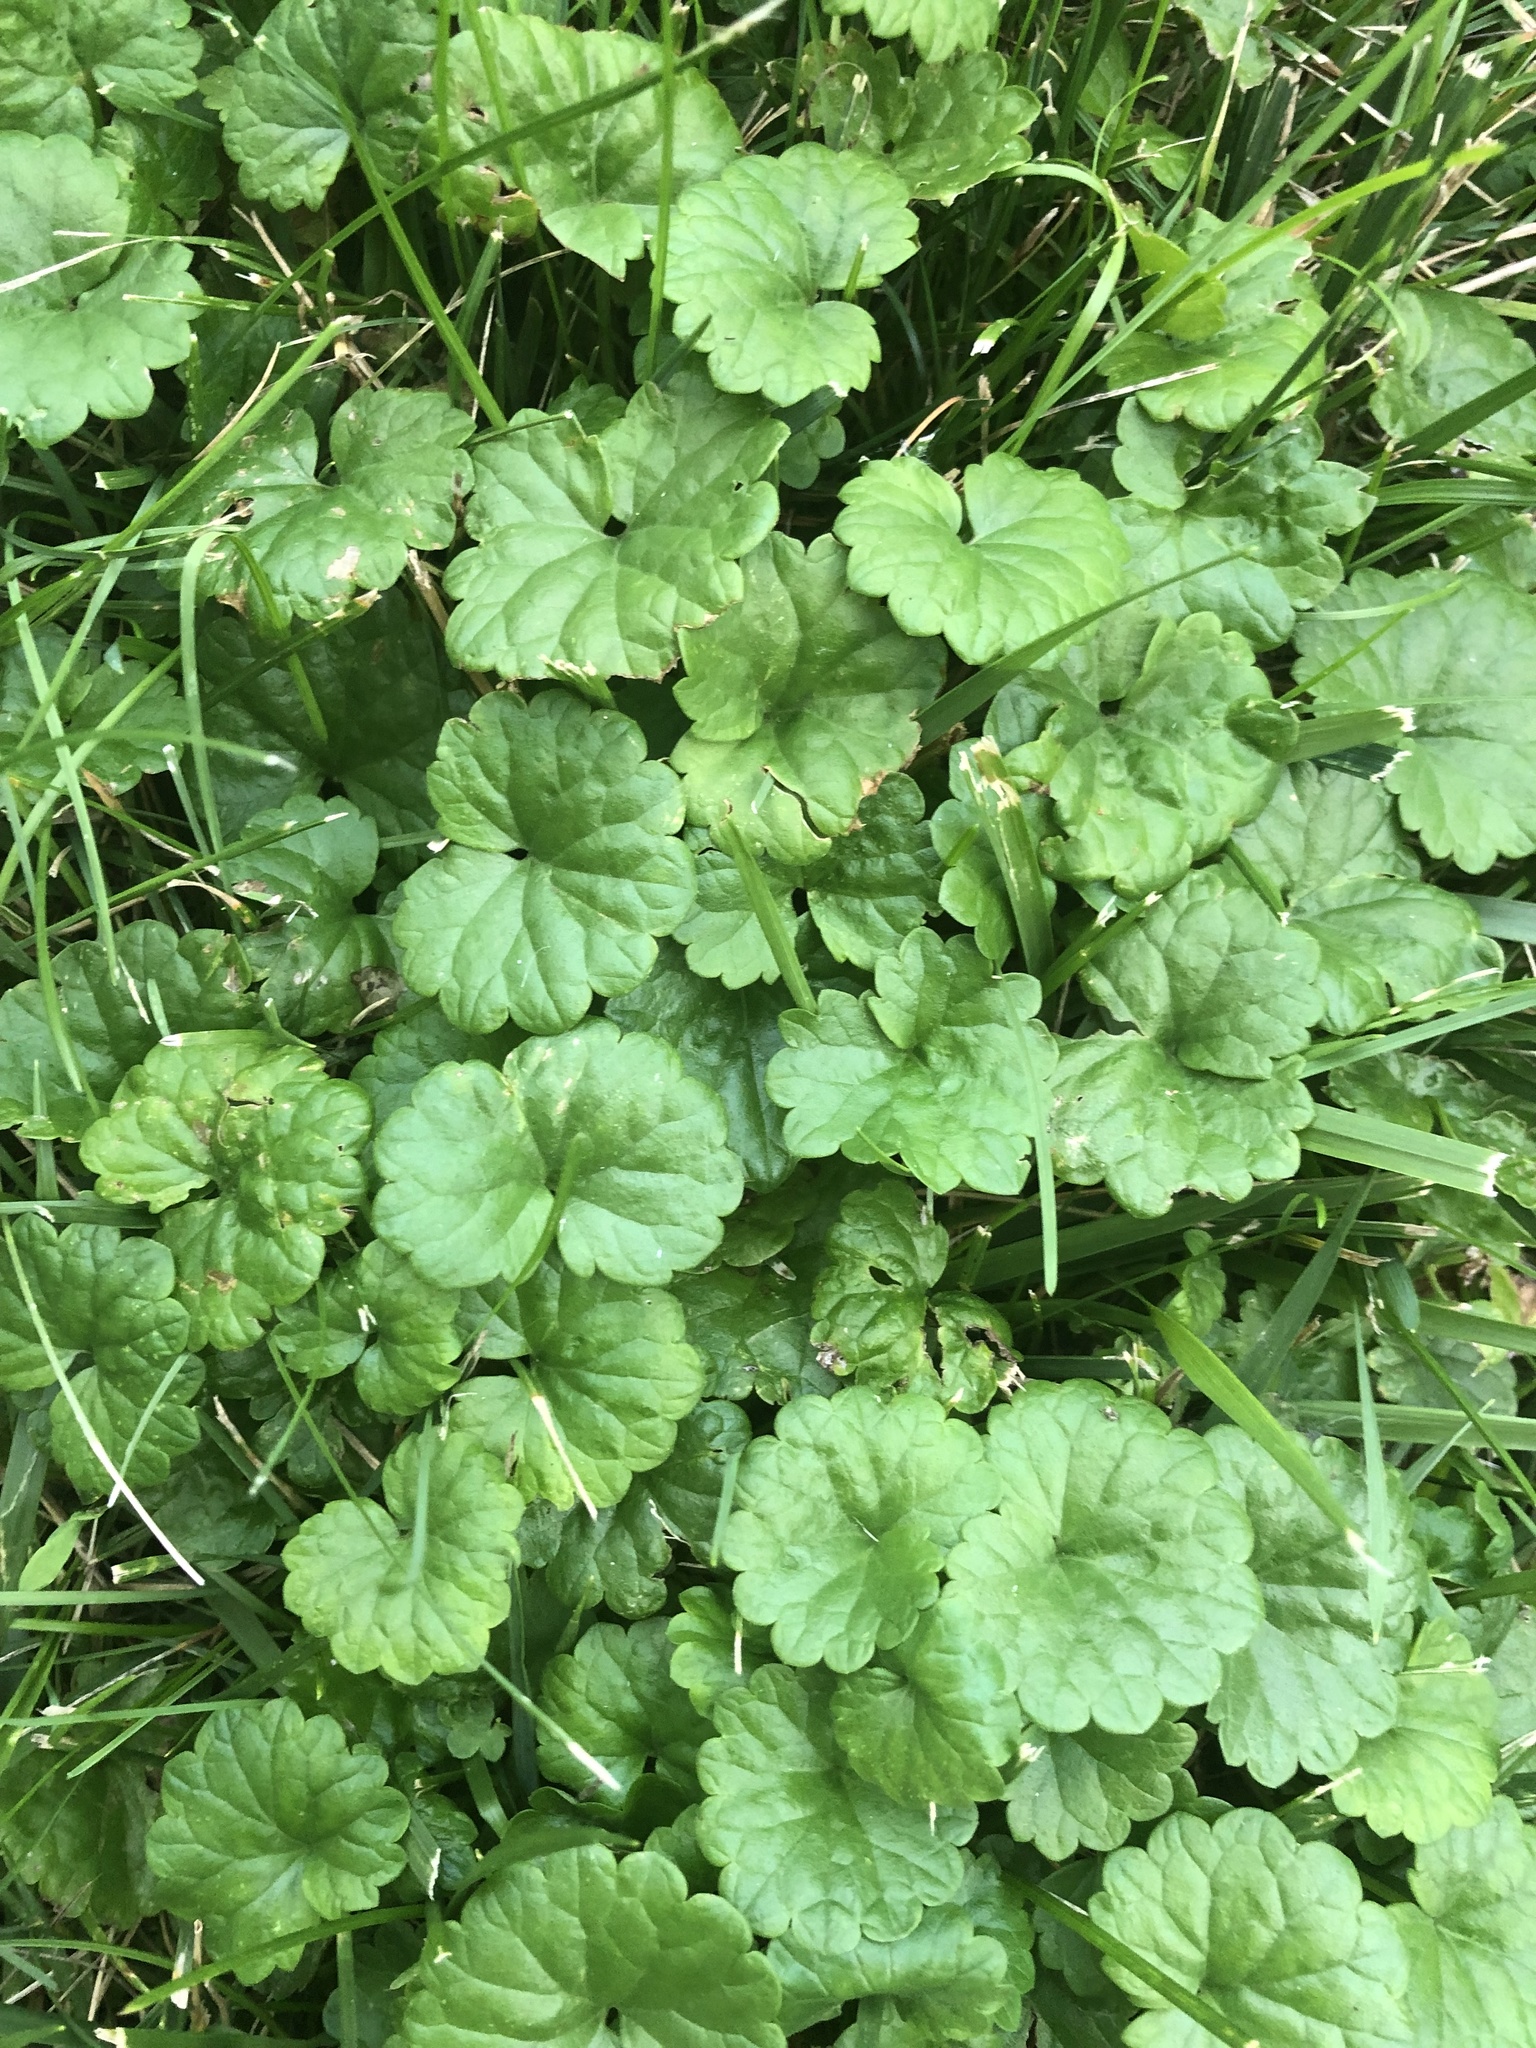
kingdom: Plantae
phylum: Tracheophyta
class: Magnoliopsida
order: Lamiales
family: Lamiaceae
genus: Glechoma
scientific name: Glechoma hederacea
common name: Ground ivy
